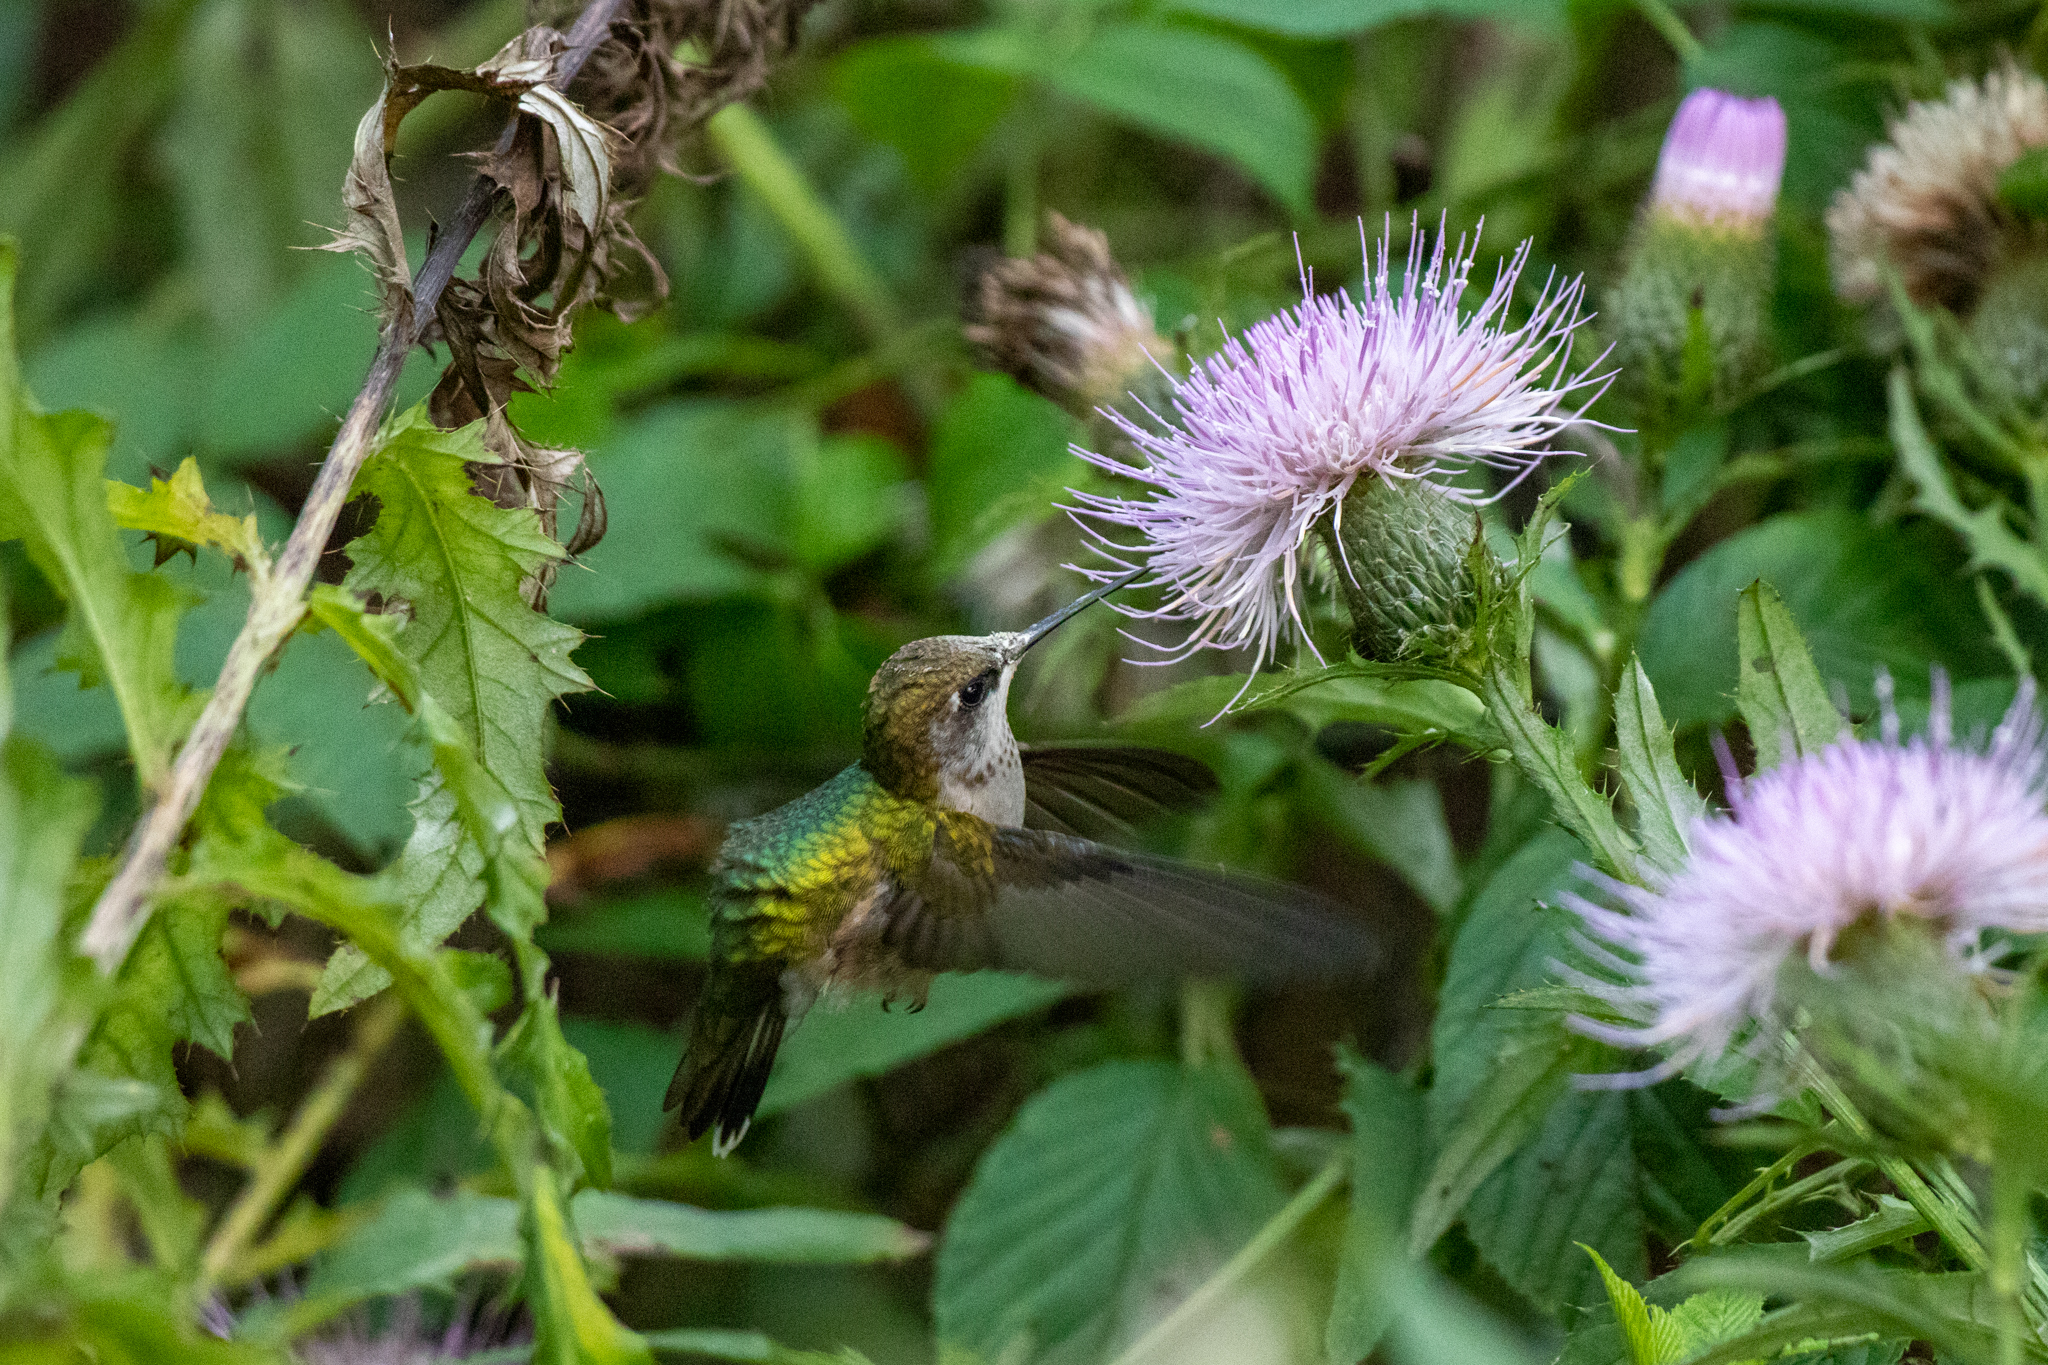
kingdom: Animalia
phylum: Chordata
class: Aves
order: Apodiformes
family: Trochilidae
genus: Archilochus
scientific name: Archilochus colubris
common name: Ruby-throated hummingbird
